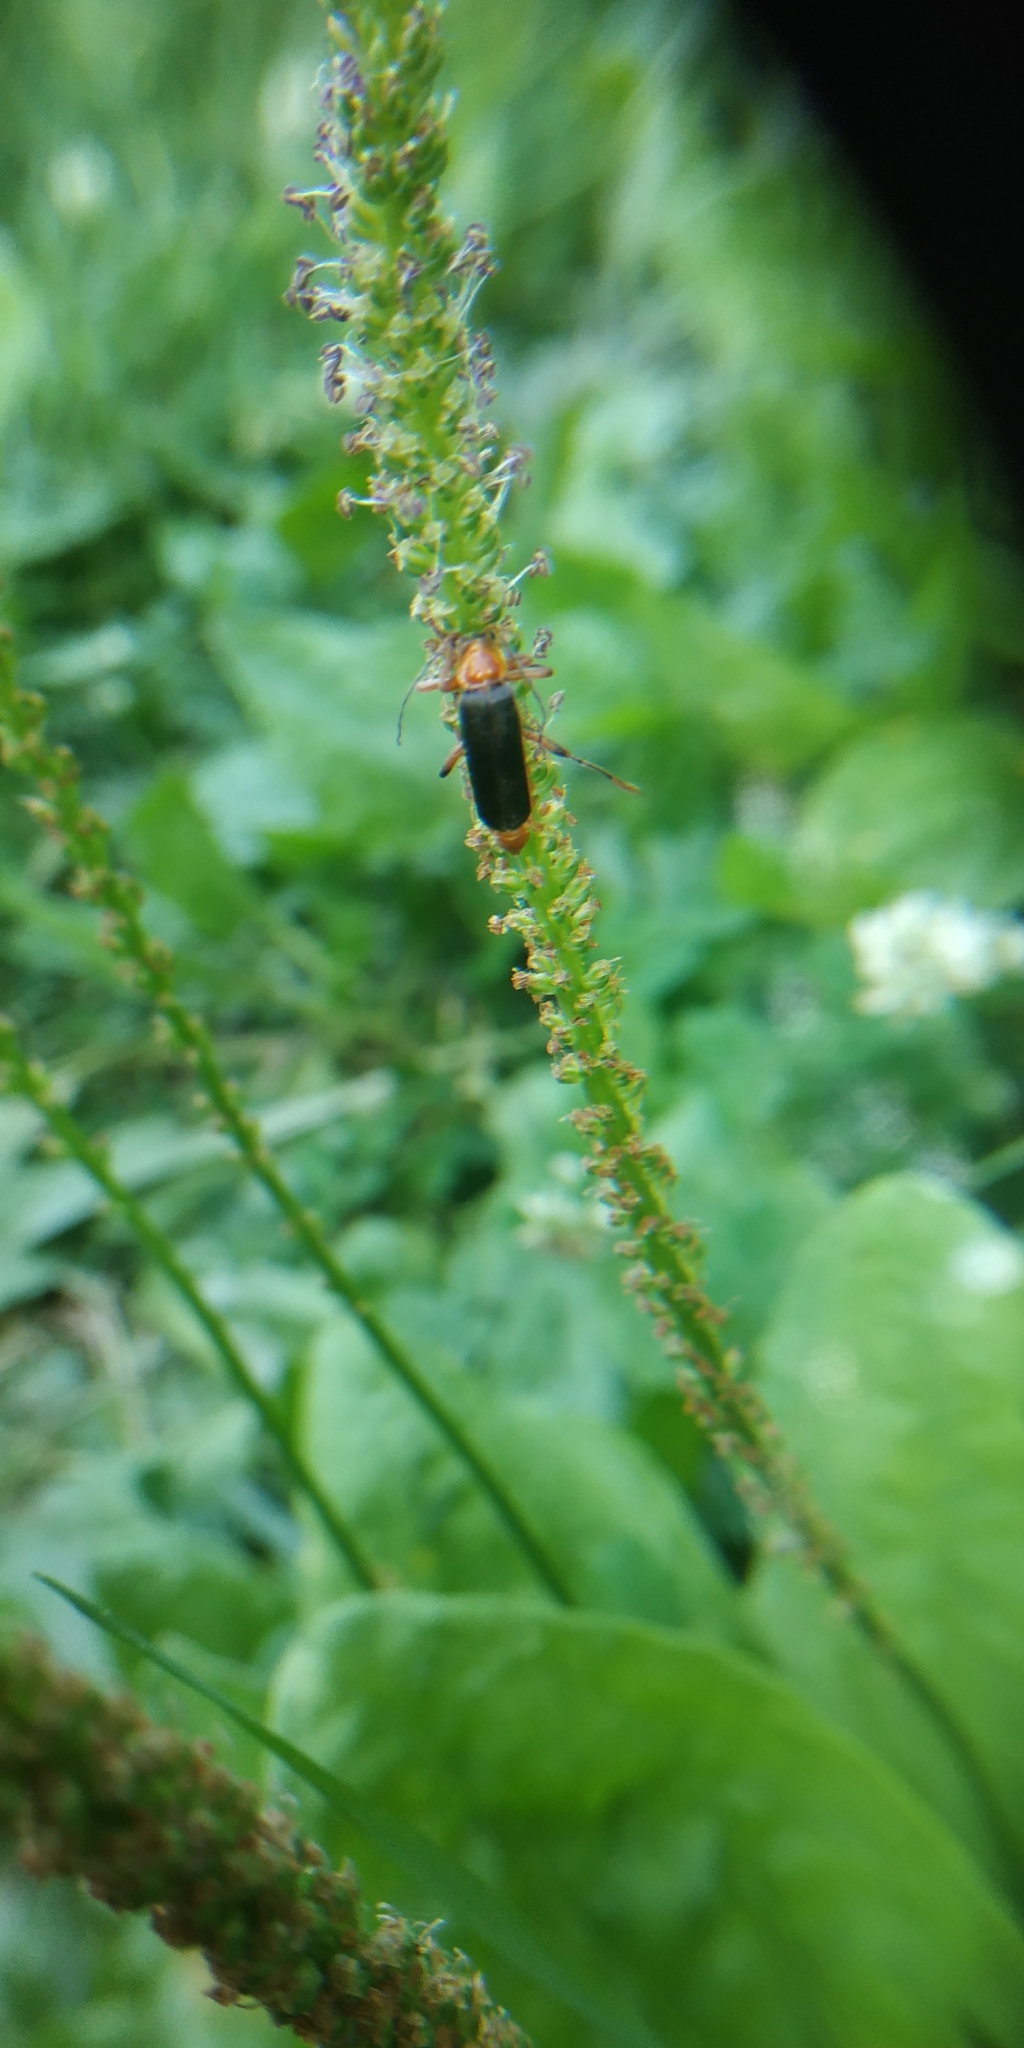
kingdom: Animalia
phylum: Arthropoda
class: Insecta
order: Coleoptera
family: Cantharidae
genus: Cantharis
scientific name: Cantharis livida
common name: Livid soldier beetle
